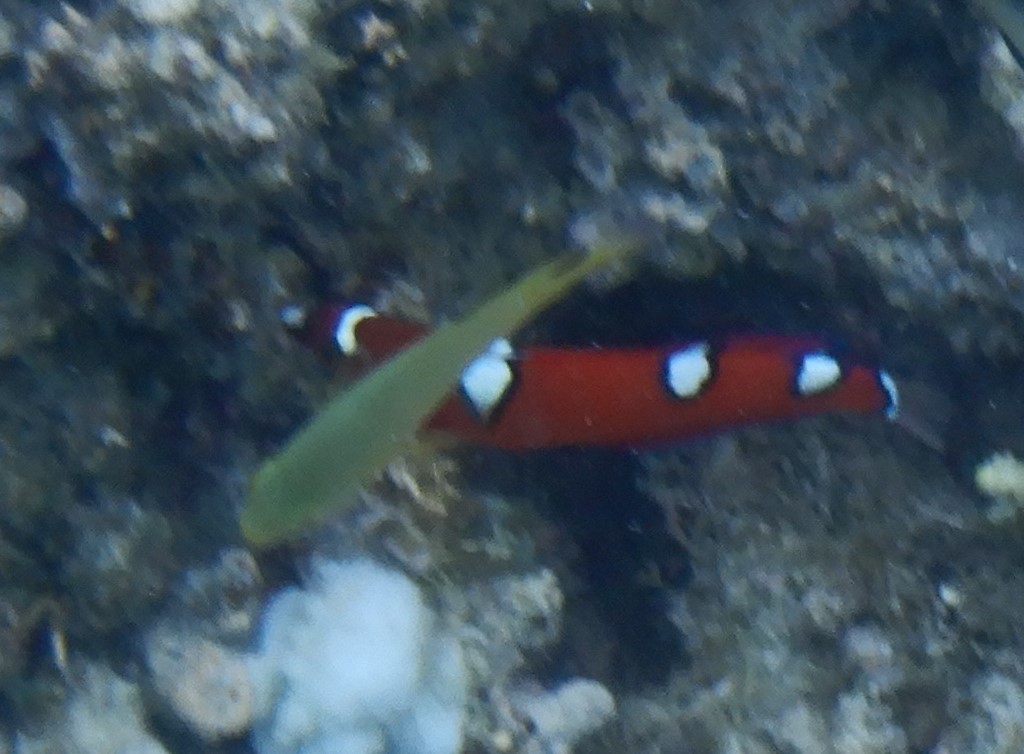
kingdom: Animalia
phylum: Chordata
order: Perciformes
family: Labridae
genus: Coris
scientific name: Coris gaimard
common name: Yellowtail coris
